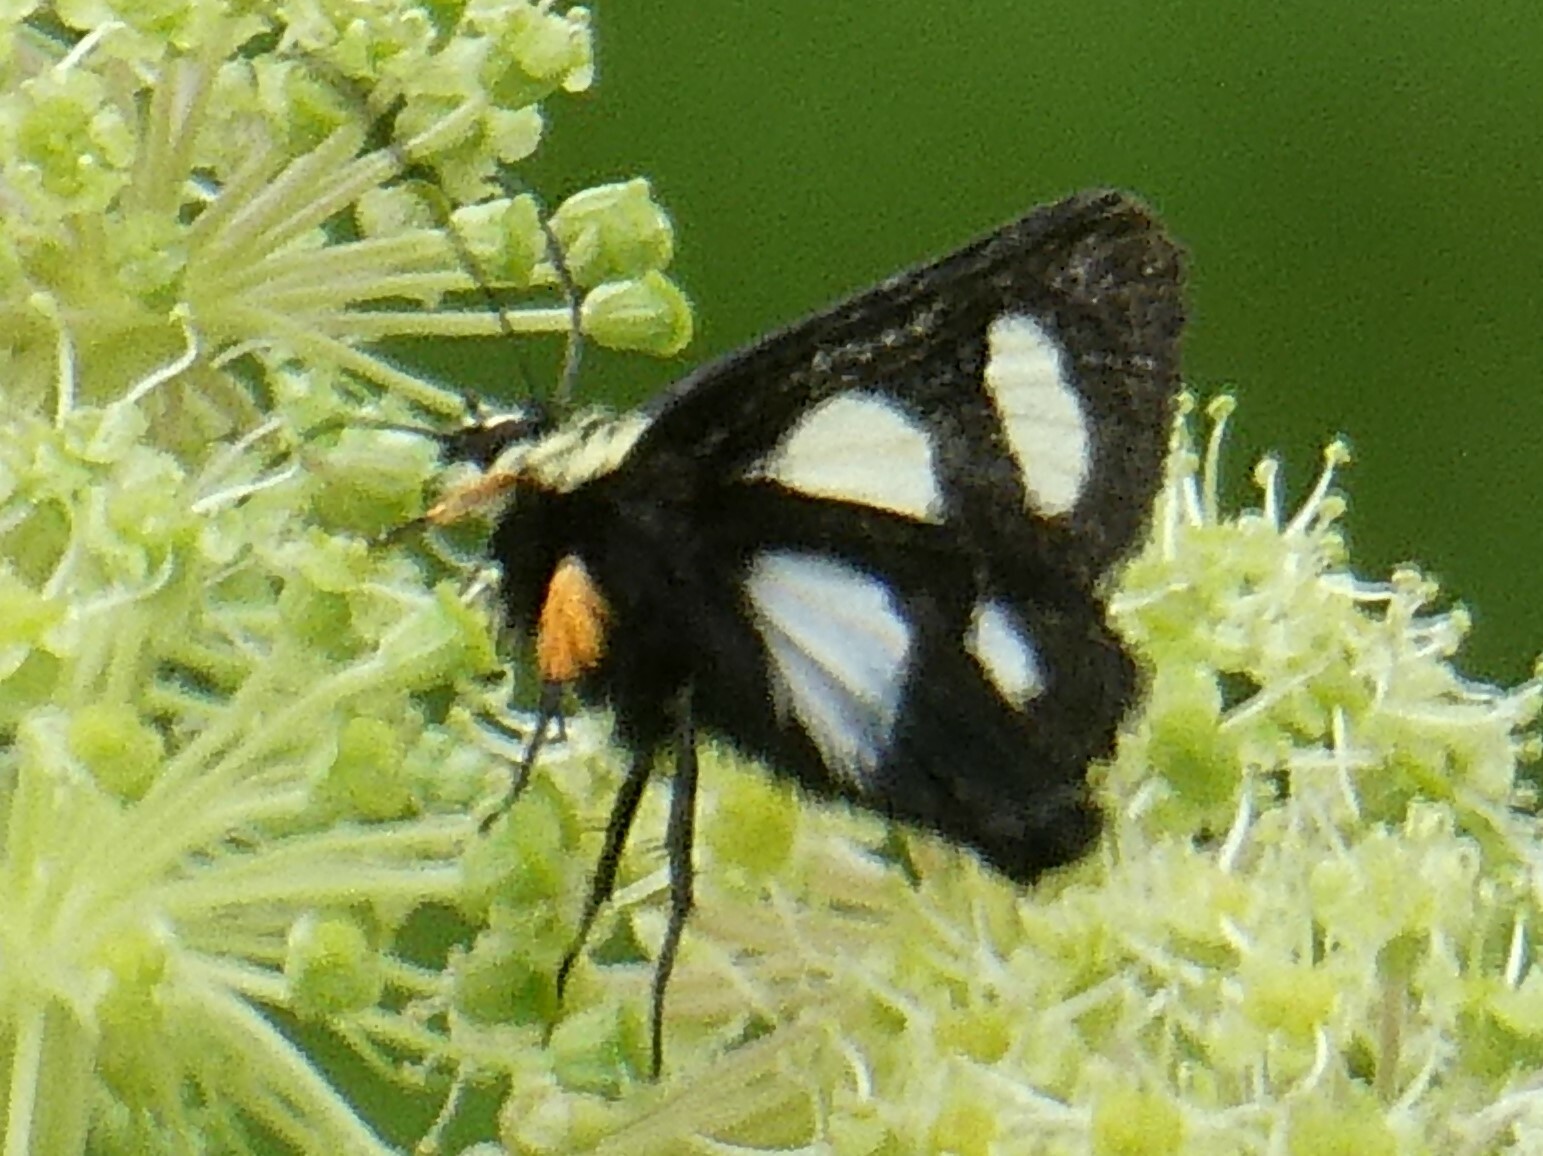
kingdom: Animalia
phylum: Arthropoda
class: Insecta
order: Lepidoptera
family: Noctuidae
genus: Alypia
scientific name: Alypia octomaculata
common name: Eight-spotted forester
